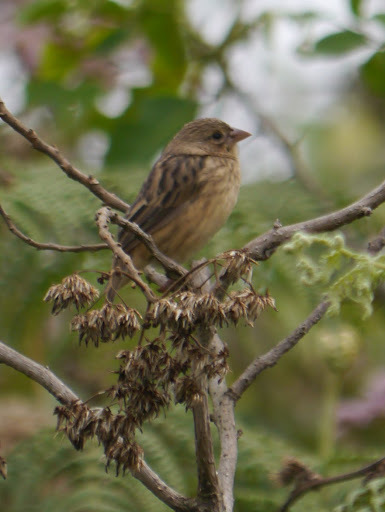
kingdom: Animalia
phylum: Chordata
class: Aves
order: Passeriformes
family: Ploceidae
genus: Euplectes
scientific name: Euplectes capensis
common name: Yellow bishop
